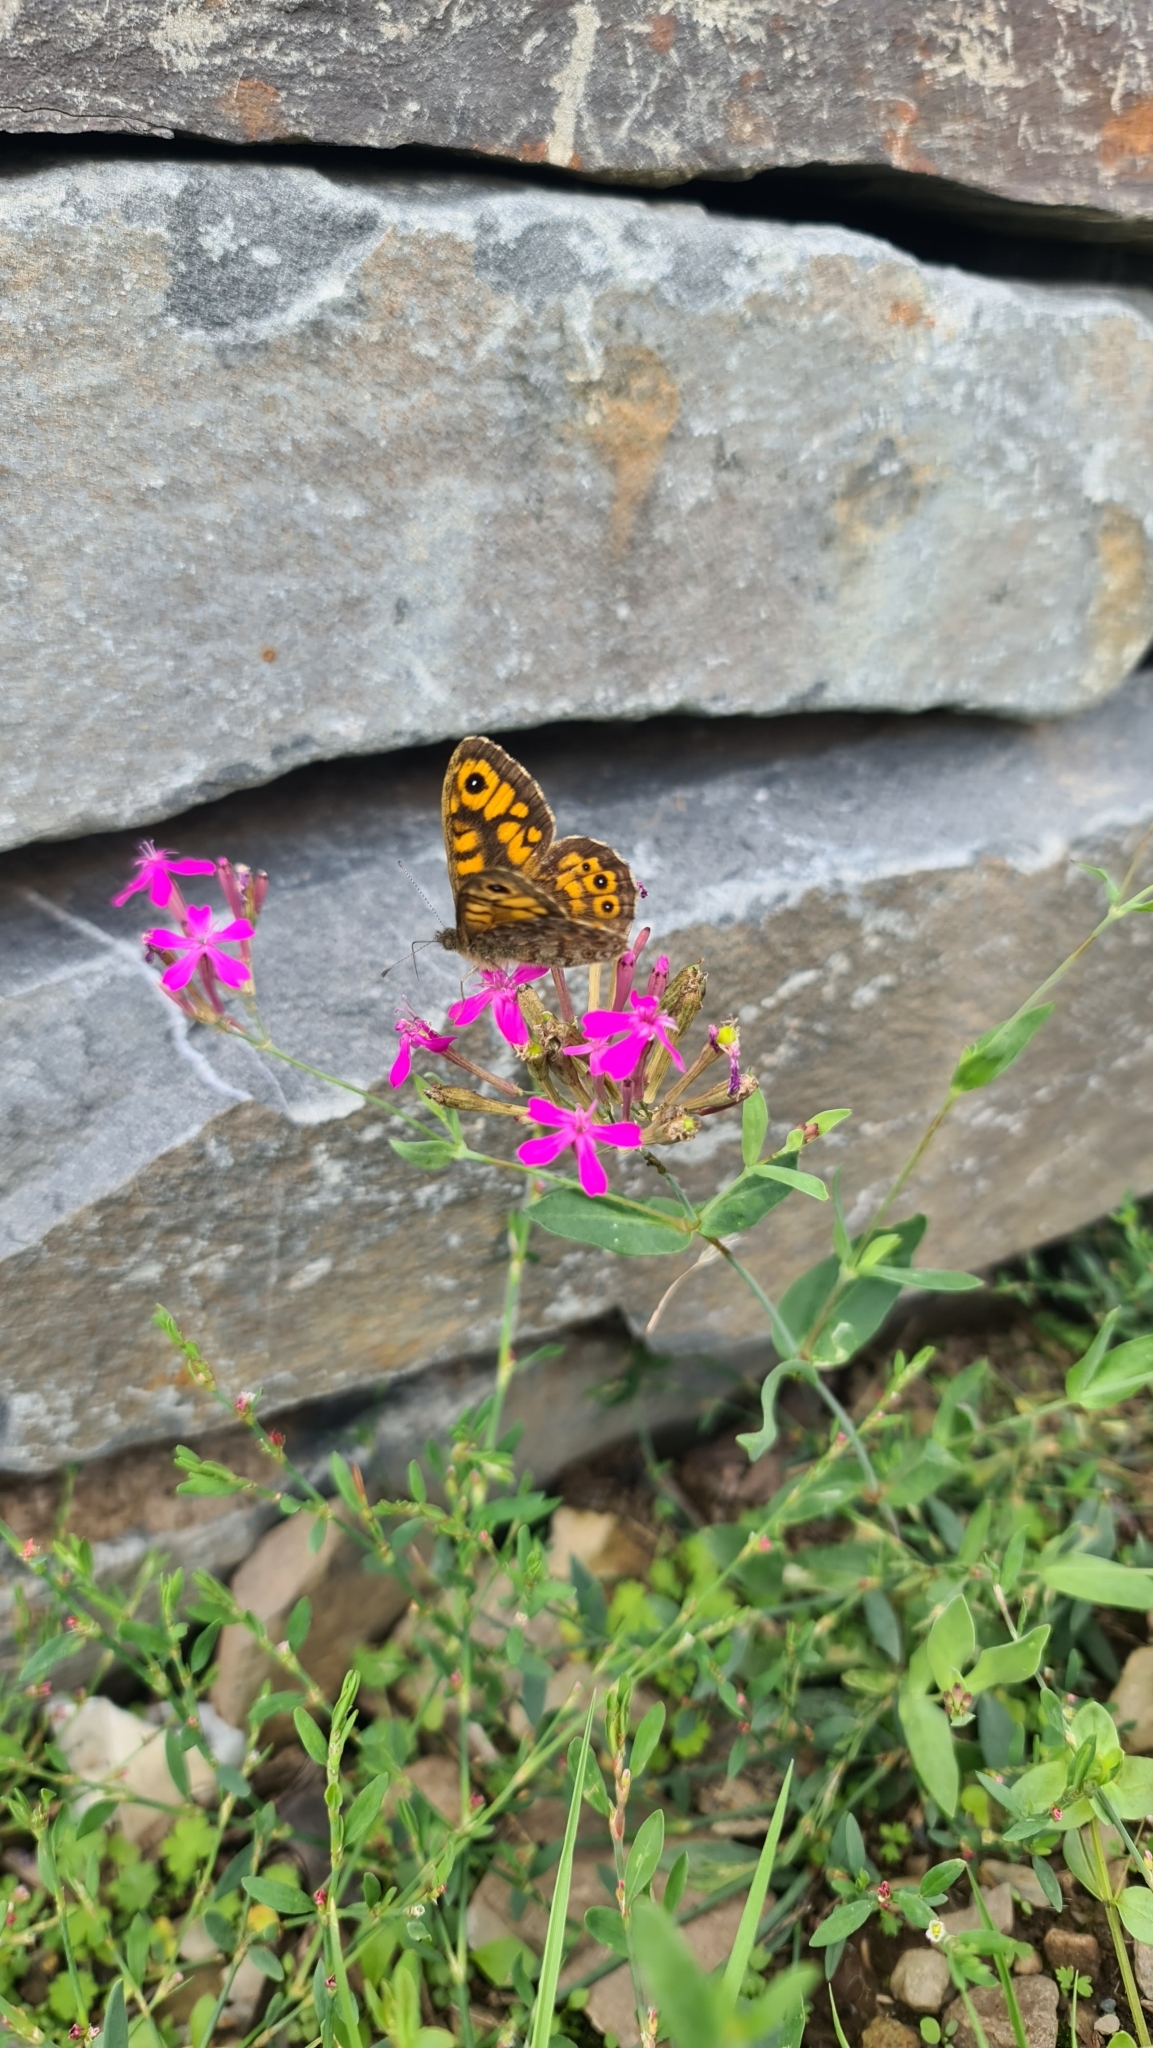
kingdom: Animalia
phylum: Arthropoda
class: Insecta
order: Lepidoptera
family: Nymphalidae
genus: Pararge
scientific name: Pararge Lasiommata megera
